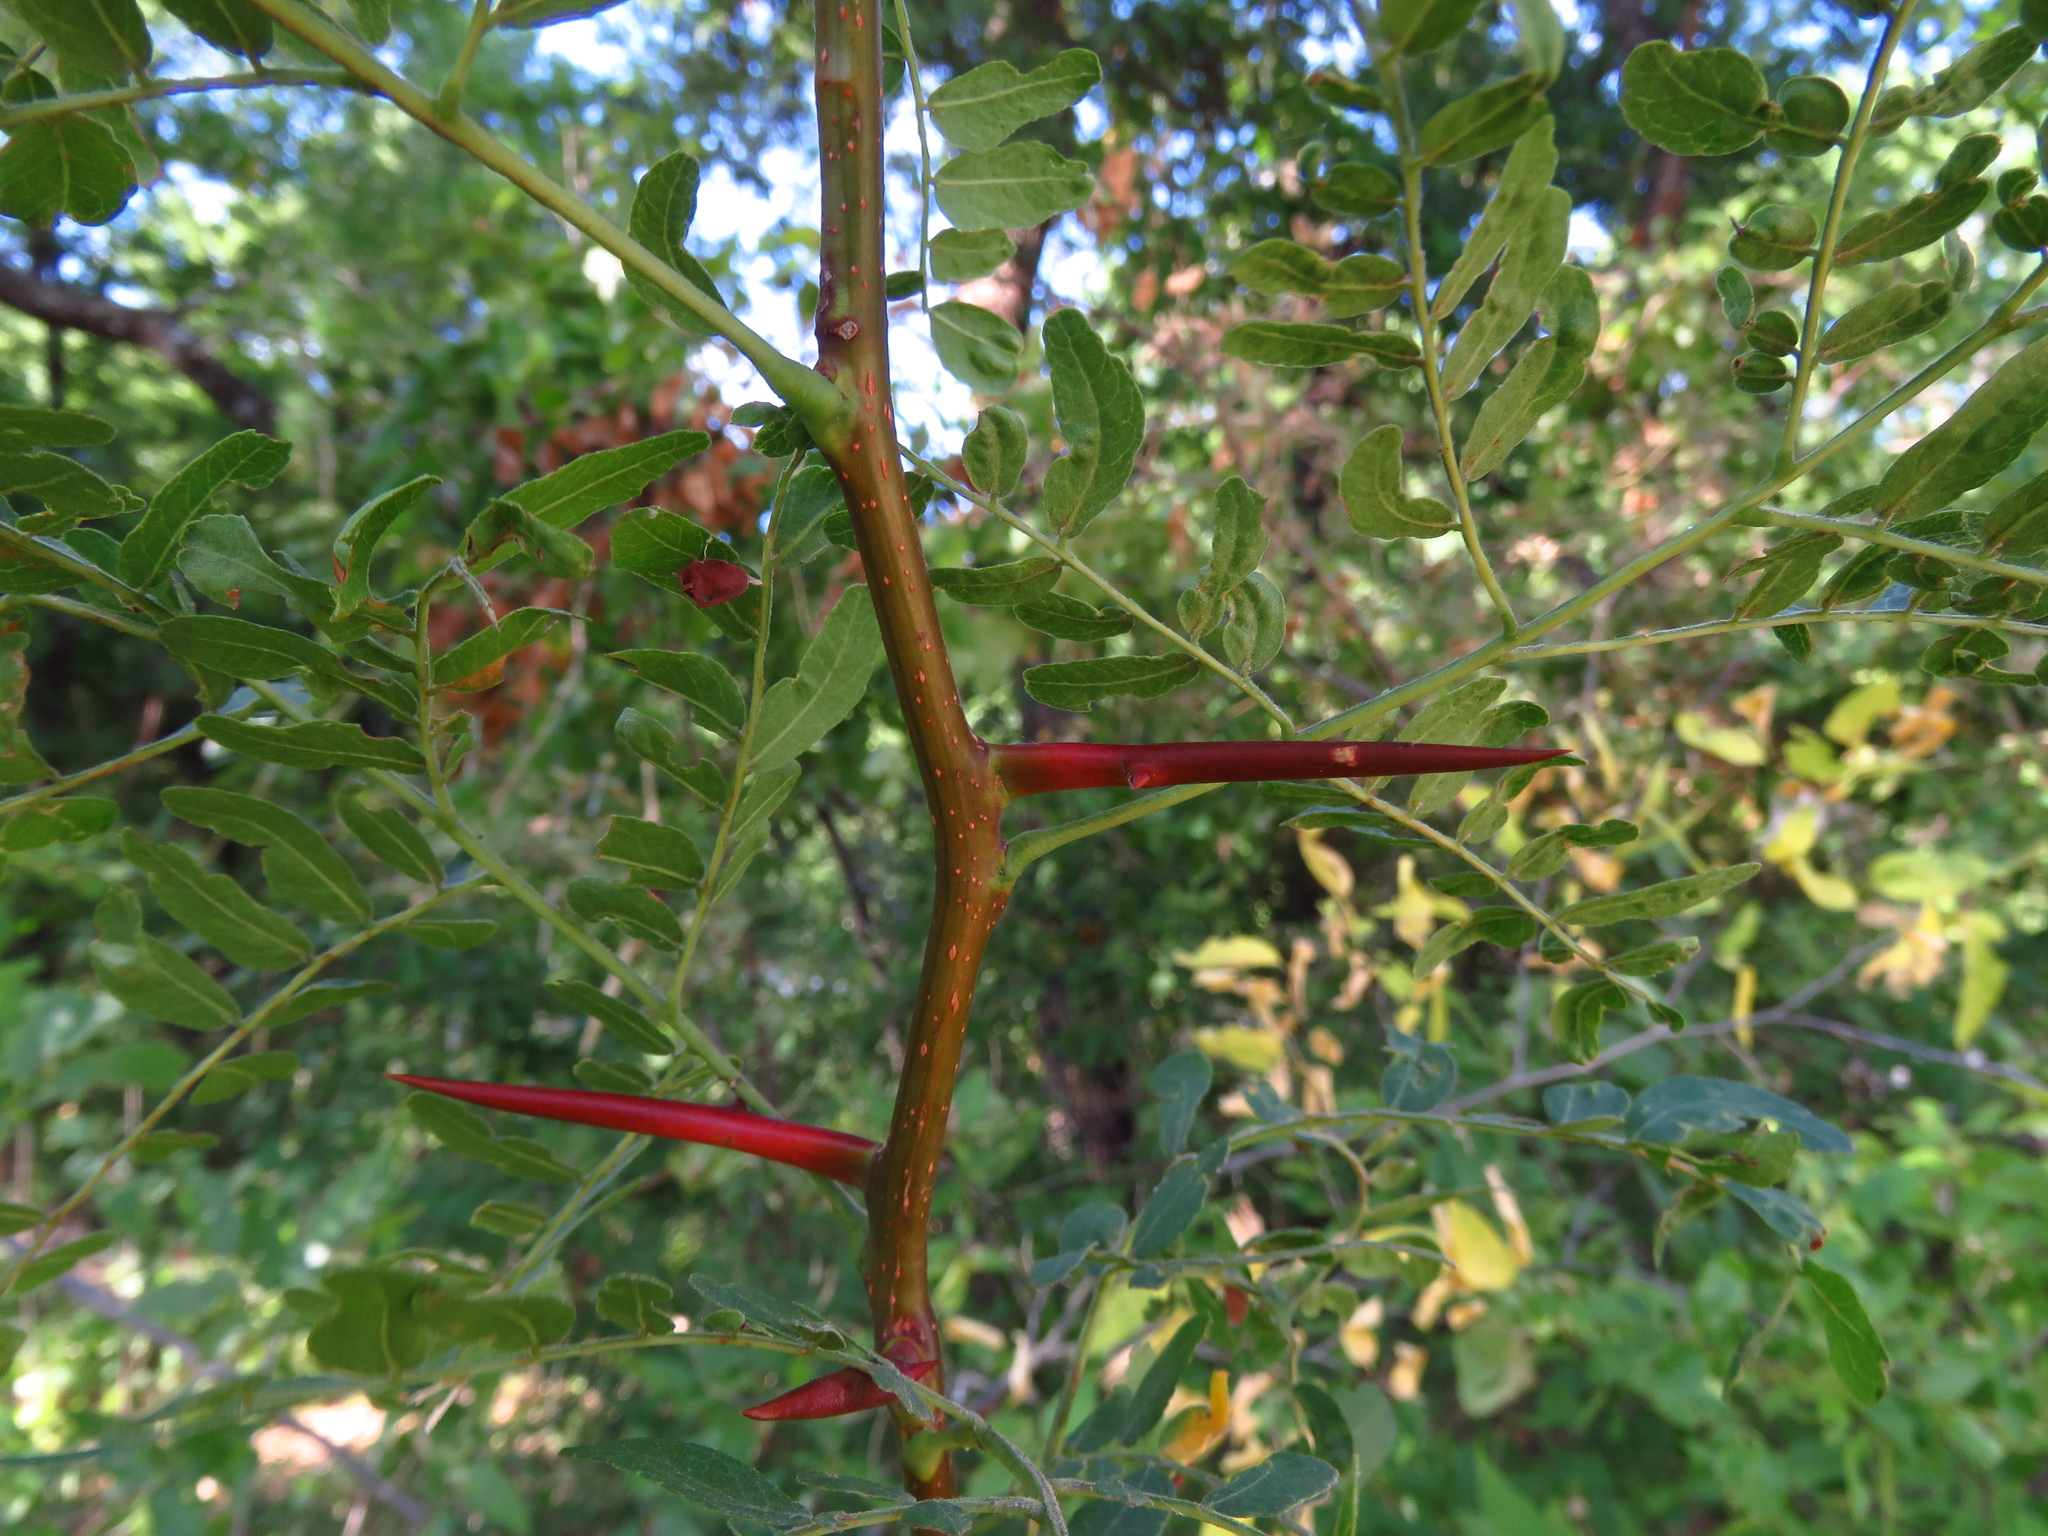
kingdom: Plantae
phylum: Tracheophyta
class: Magnoliopsida
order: Fabales
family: Fabaceae
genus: Gleditsia
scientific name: Gleditsia triacanthos
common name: Common honeylocust
